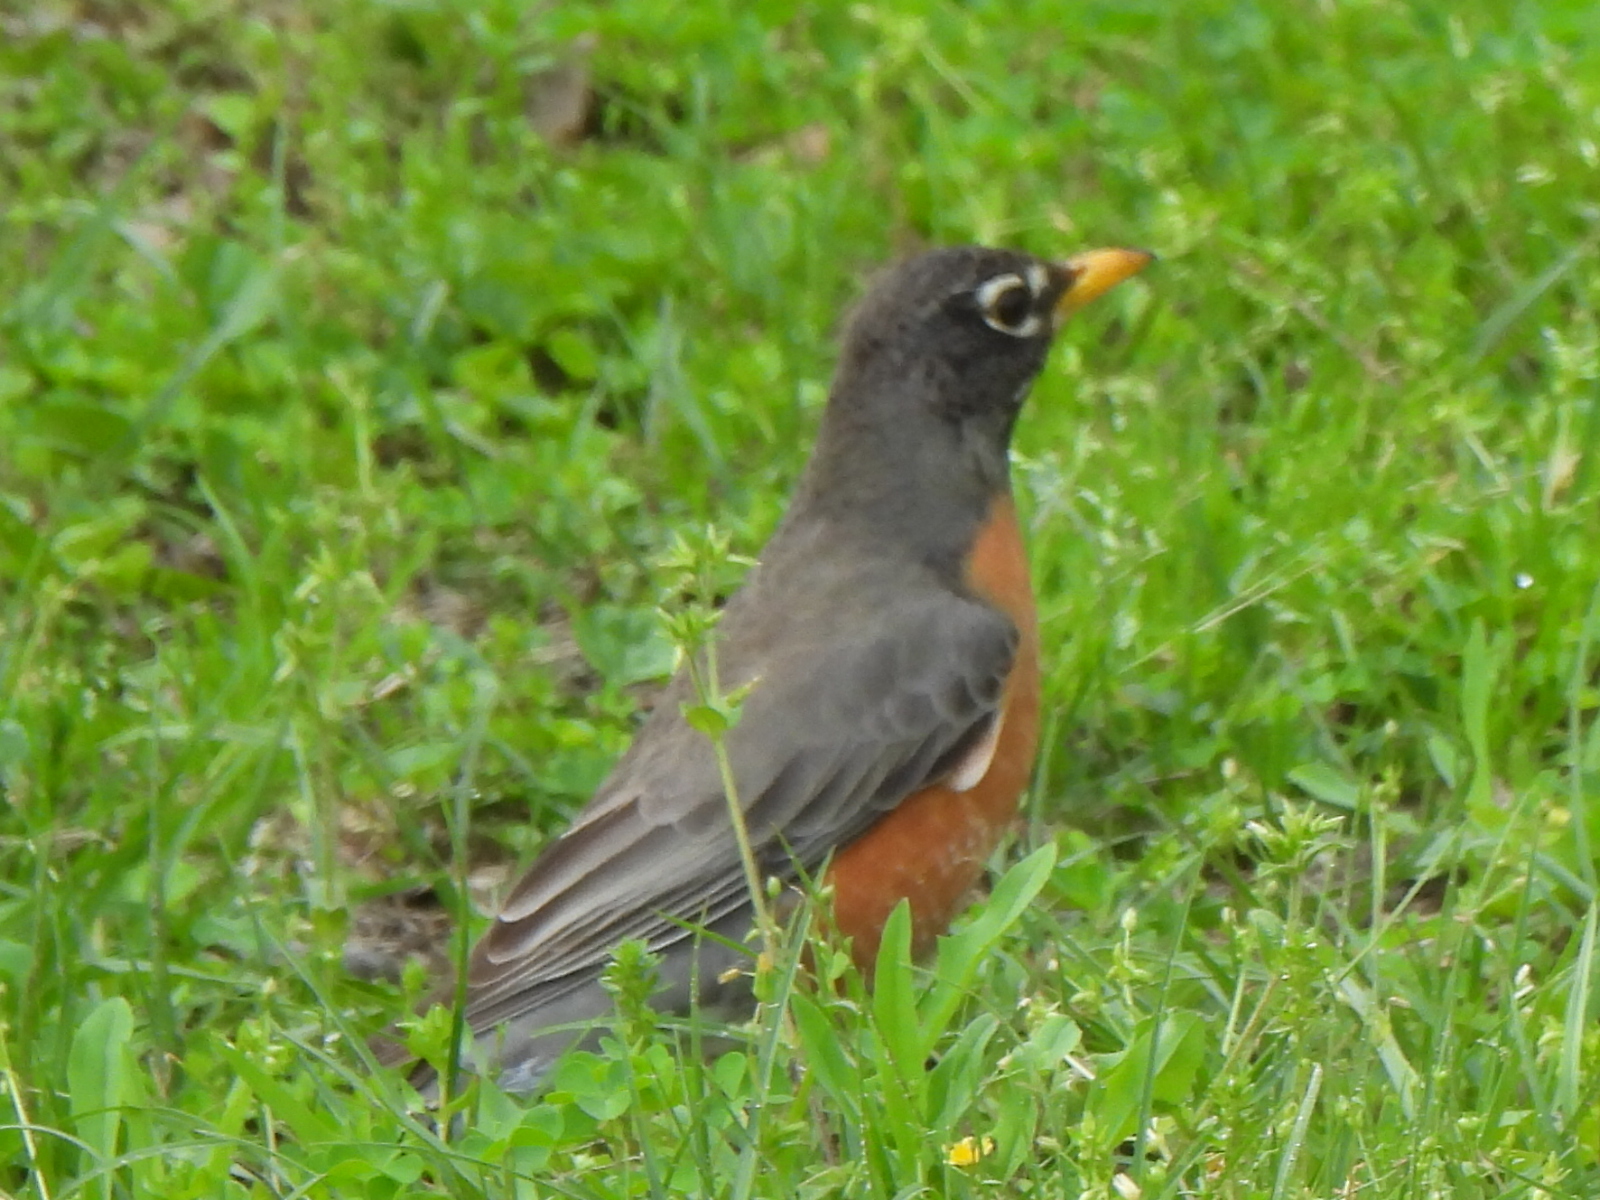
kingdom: Animalia
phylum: Chordata
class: Aves
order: Passeriformes
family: Turdidae
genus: Turdus
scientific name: Turdus migratorius
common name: American robin
